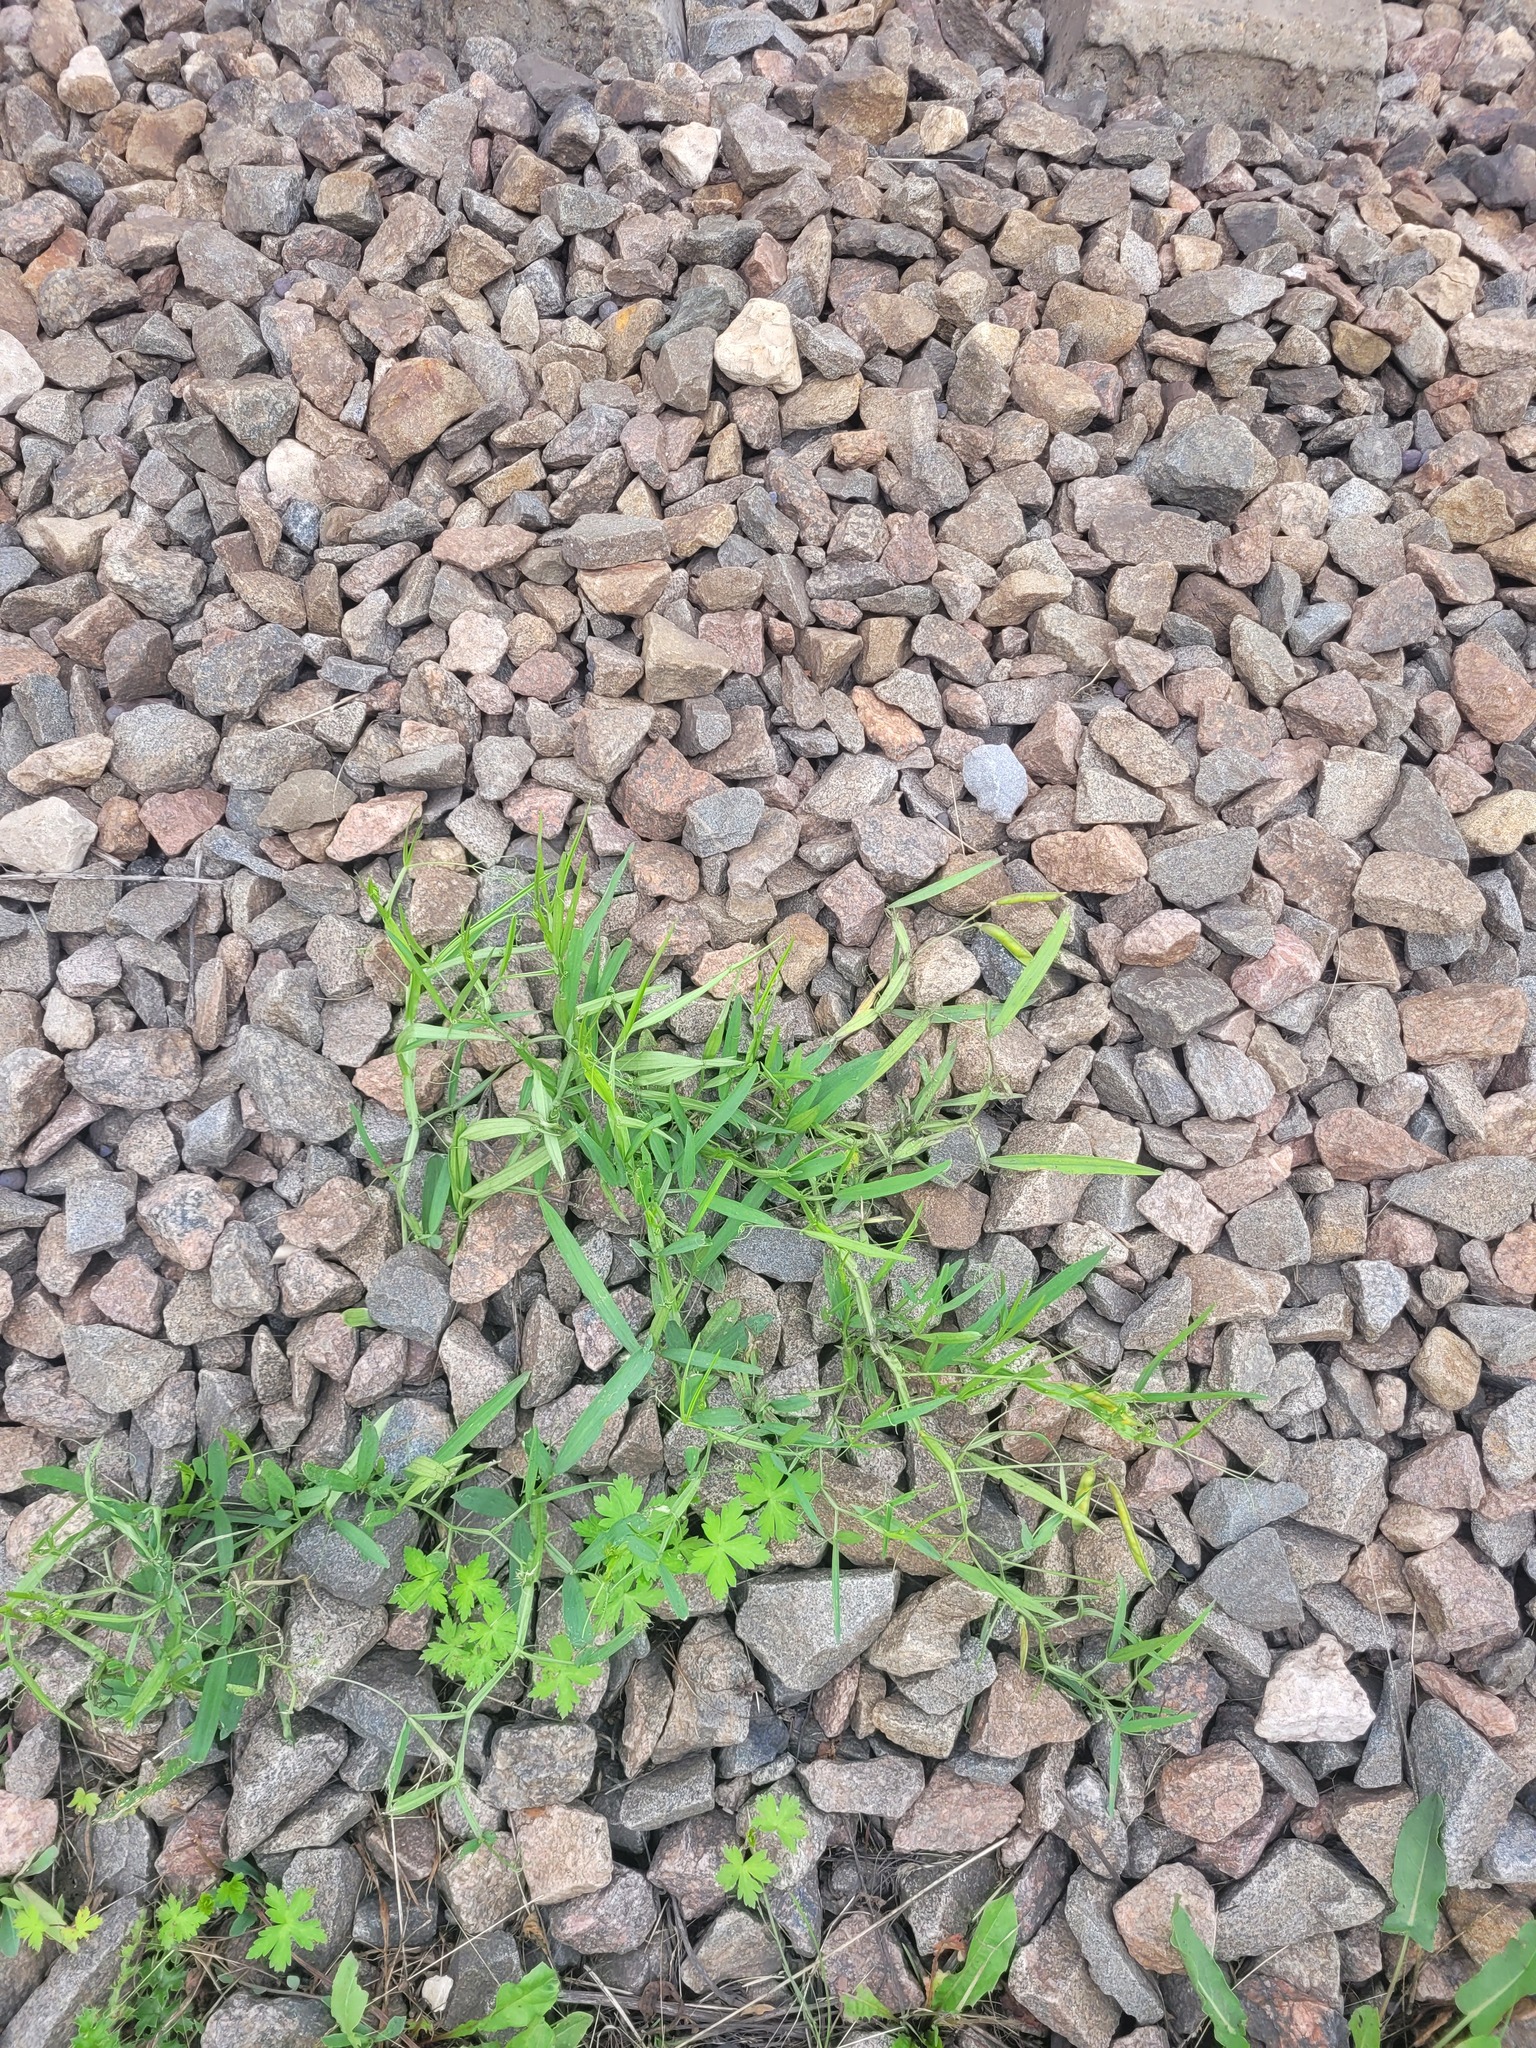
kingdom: Plantae
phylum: Tracheophyta
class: Magnoliopsida
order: Fabales
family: Fabaceae
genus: Lathyrus
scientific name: Lathyrus sylvestris
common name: Flat pea
